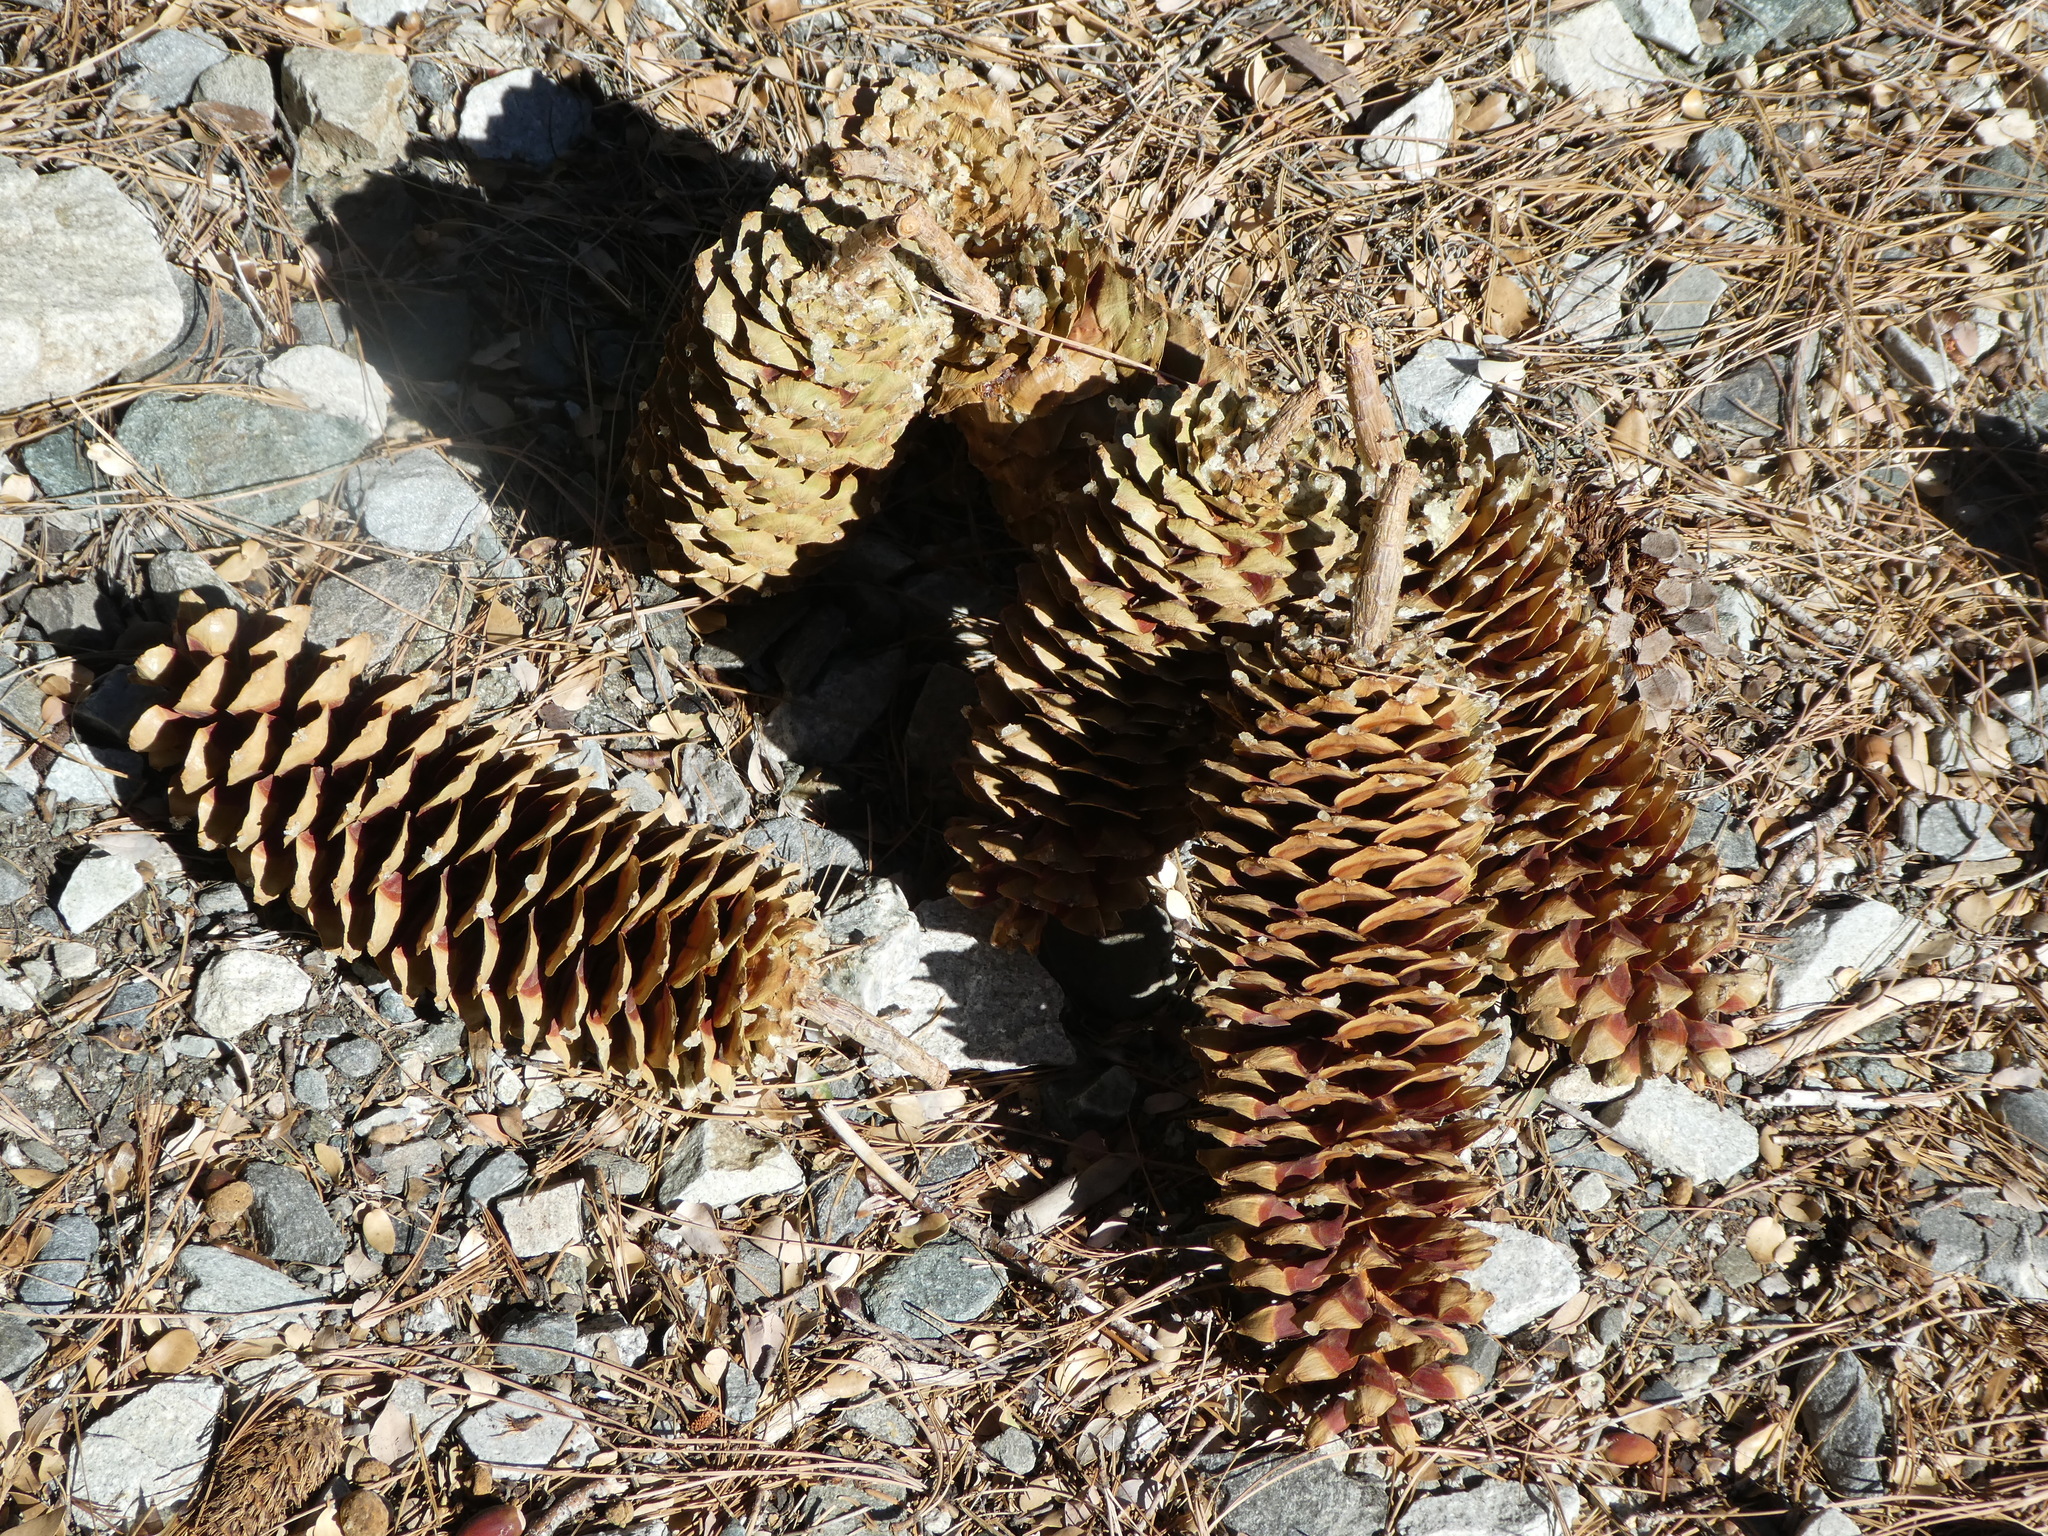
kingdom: Plantae
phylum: Tracheophyta
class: Pinopsida
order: Pinales
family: Pinaceae
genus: Pinus
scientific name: Pinus lambertiana
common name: Sugar pine
